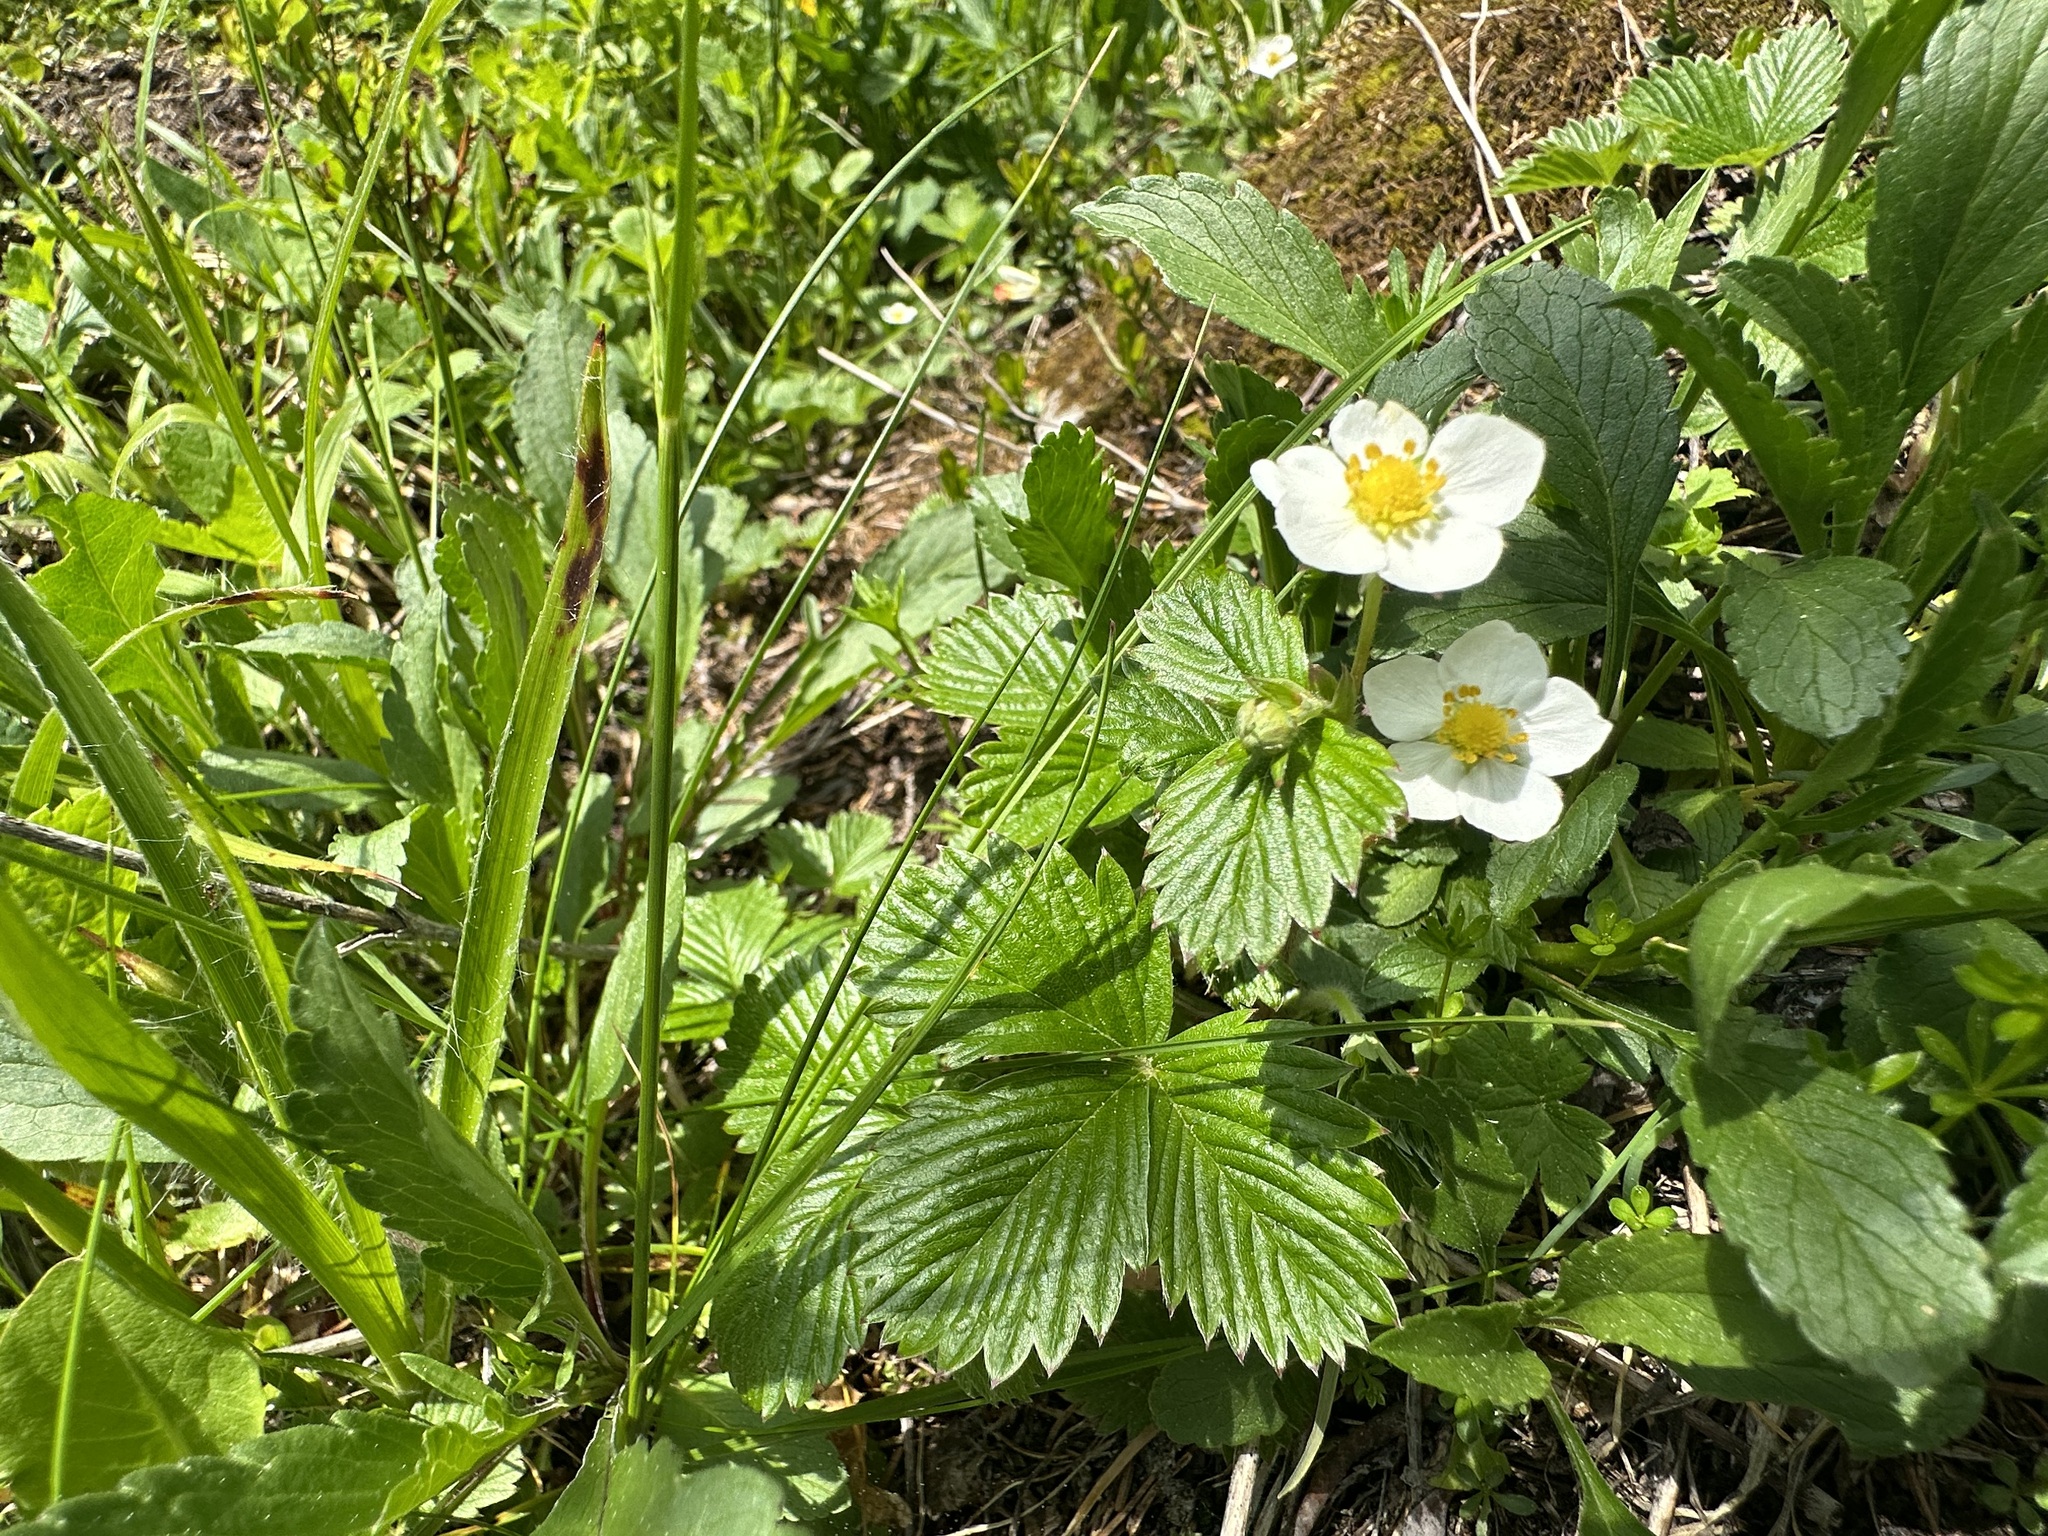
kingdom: Plantae
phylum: Tracheophyta
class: Magnoliopsida
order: Rosales
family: Rosaceae
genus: Fragaria
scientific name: Fragaria vesca
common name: Wild strawberry
